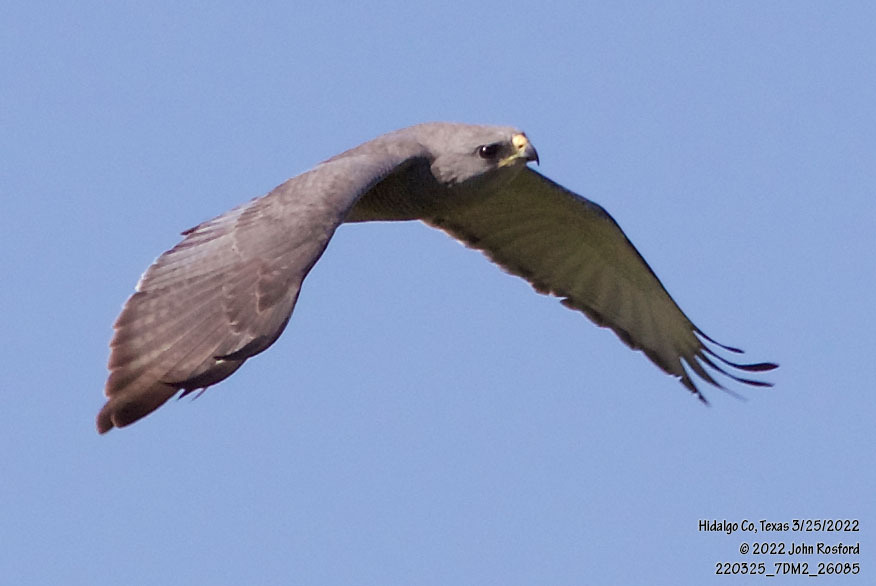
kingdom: Animalia
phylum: Chordata
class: Aves
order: Accipitriformes
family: Accipitridae
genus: Buteo
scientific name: Buteo nitidus
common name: Grey-lined hawk
